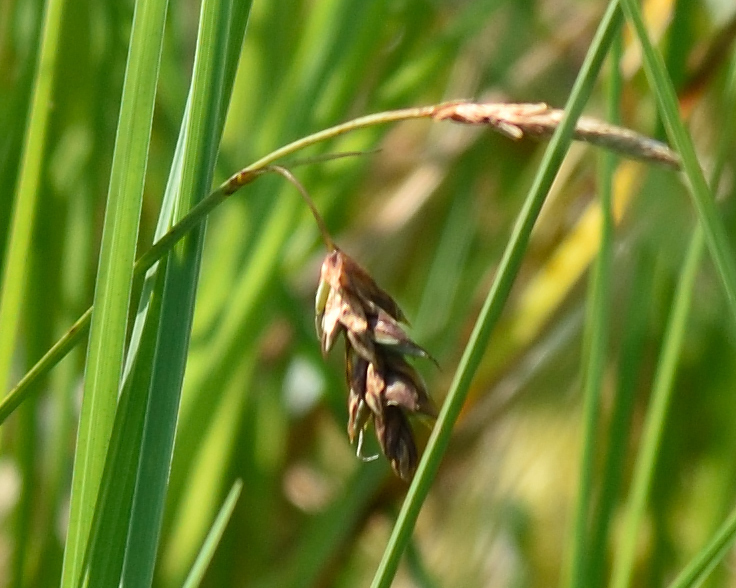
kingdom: Plantae
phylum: Tracheophyta
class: Liliopsida
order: Poales
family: Cyperaceae
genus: Carex
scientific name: Carex limosa
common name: Bog sedge
